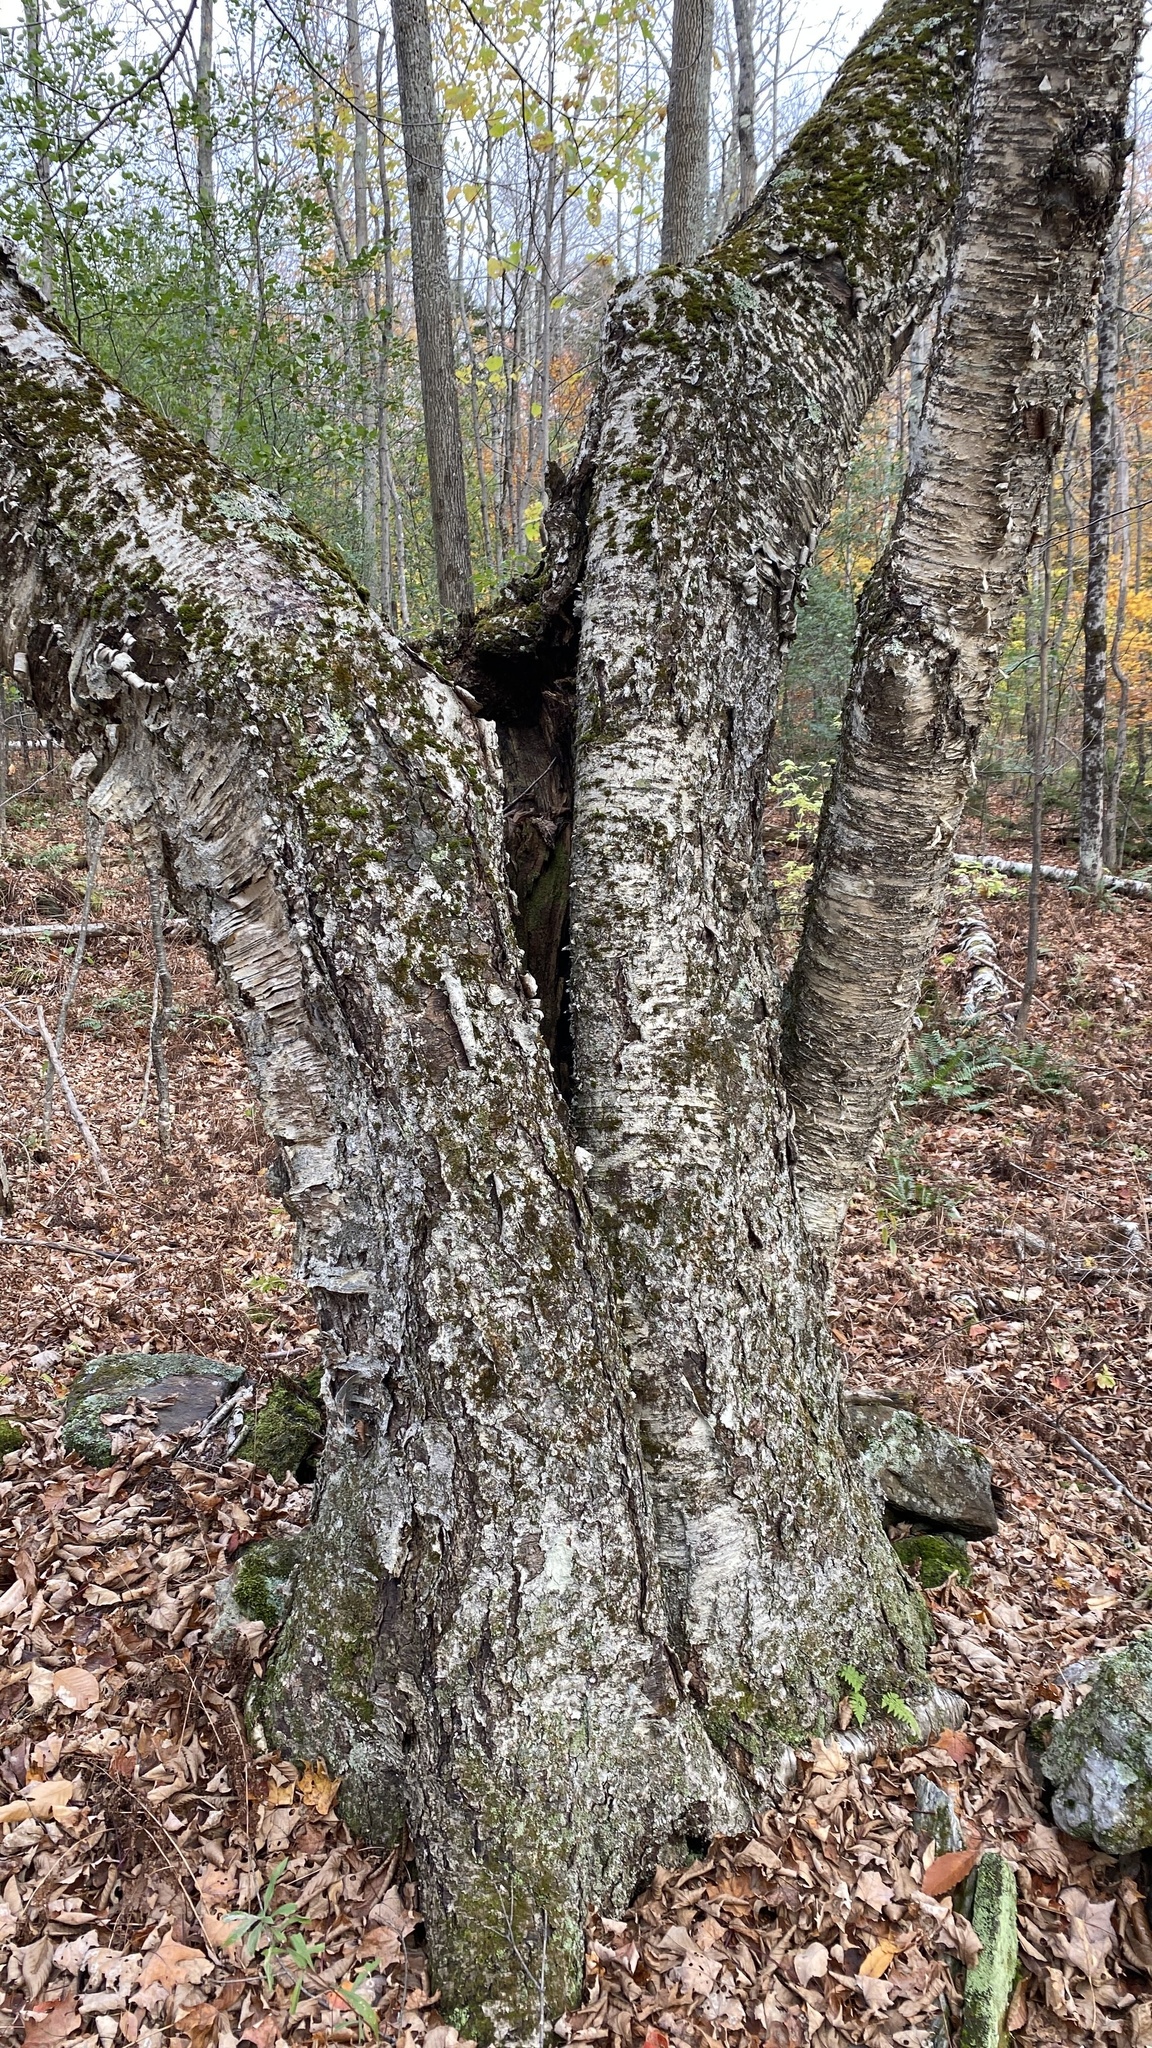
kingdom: Plantae
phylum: Tracheophyta
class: Magnoliopsida
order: Fagales
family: Betulaceae
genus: Betula
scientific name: Betula alleghaniensis
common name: Yellow birch
